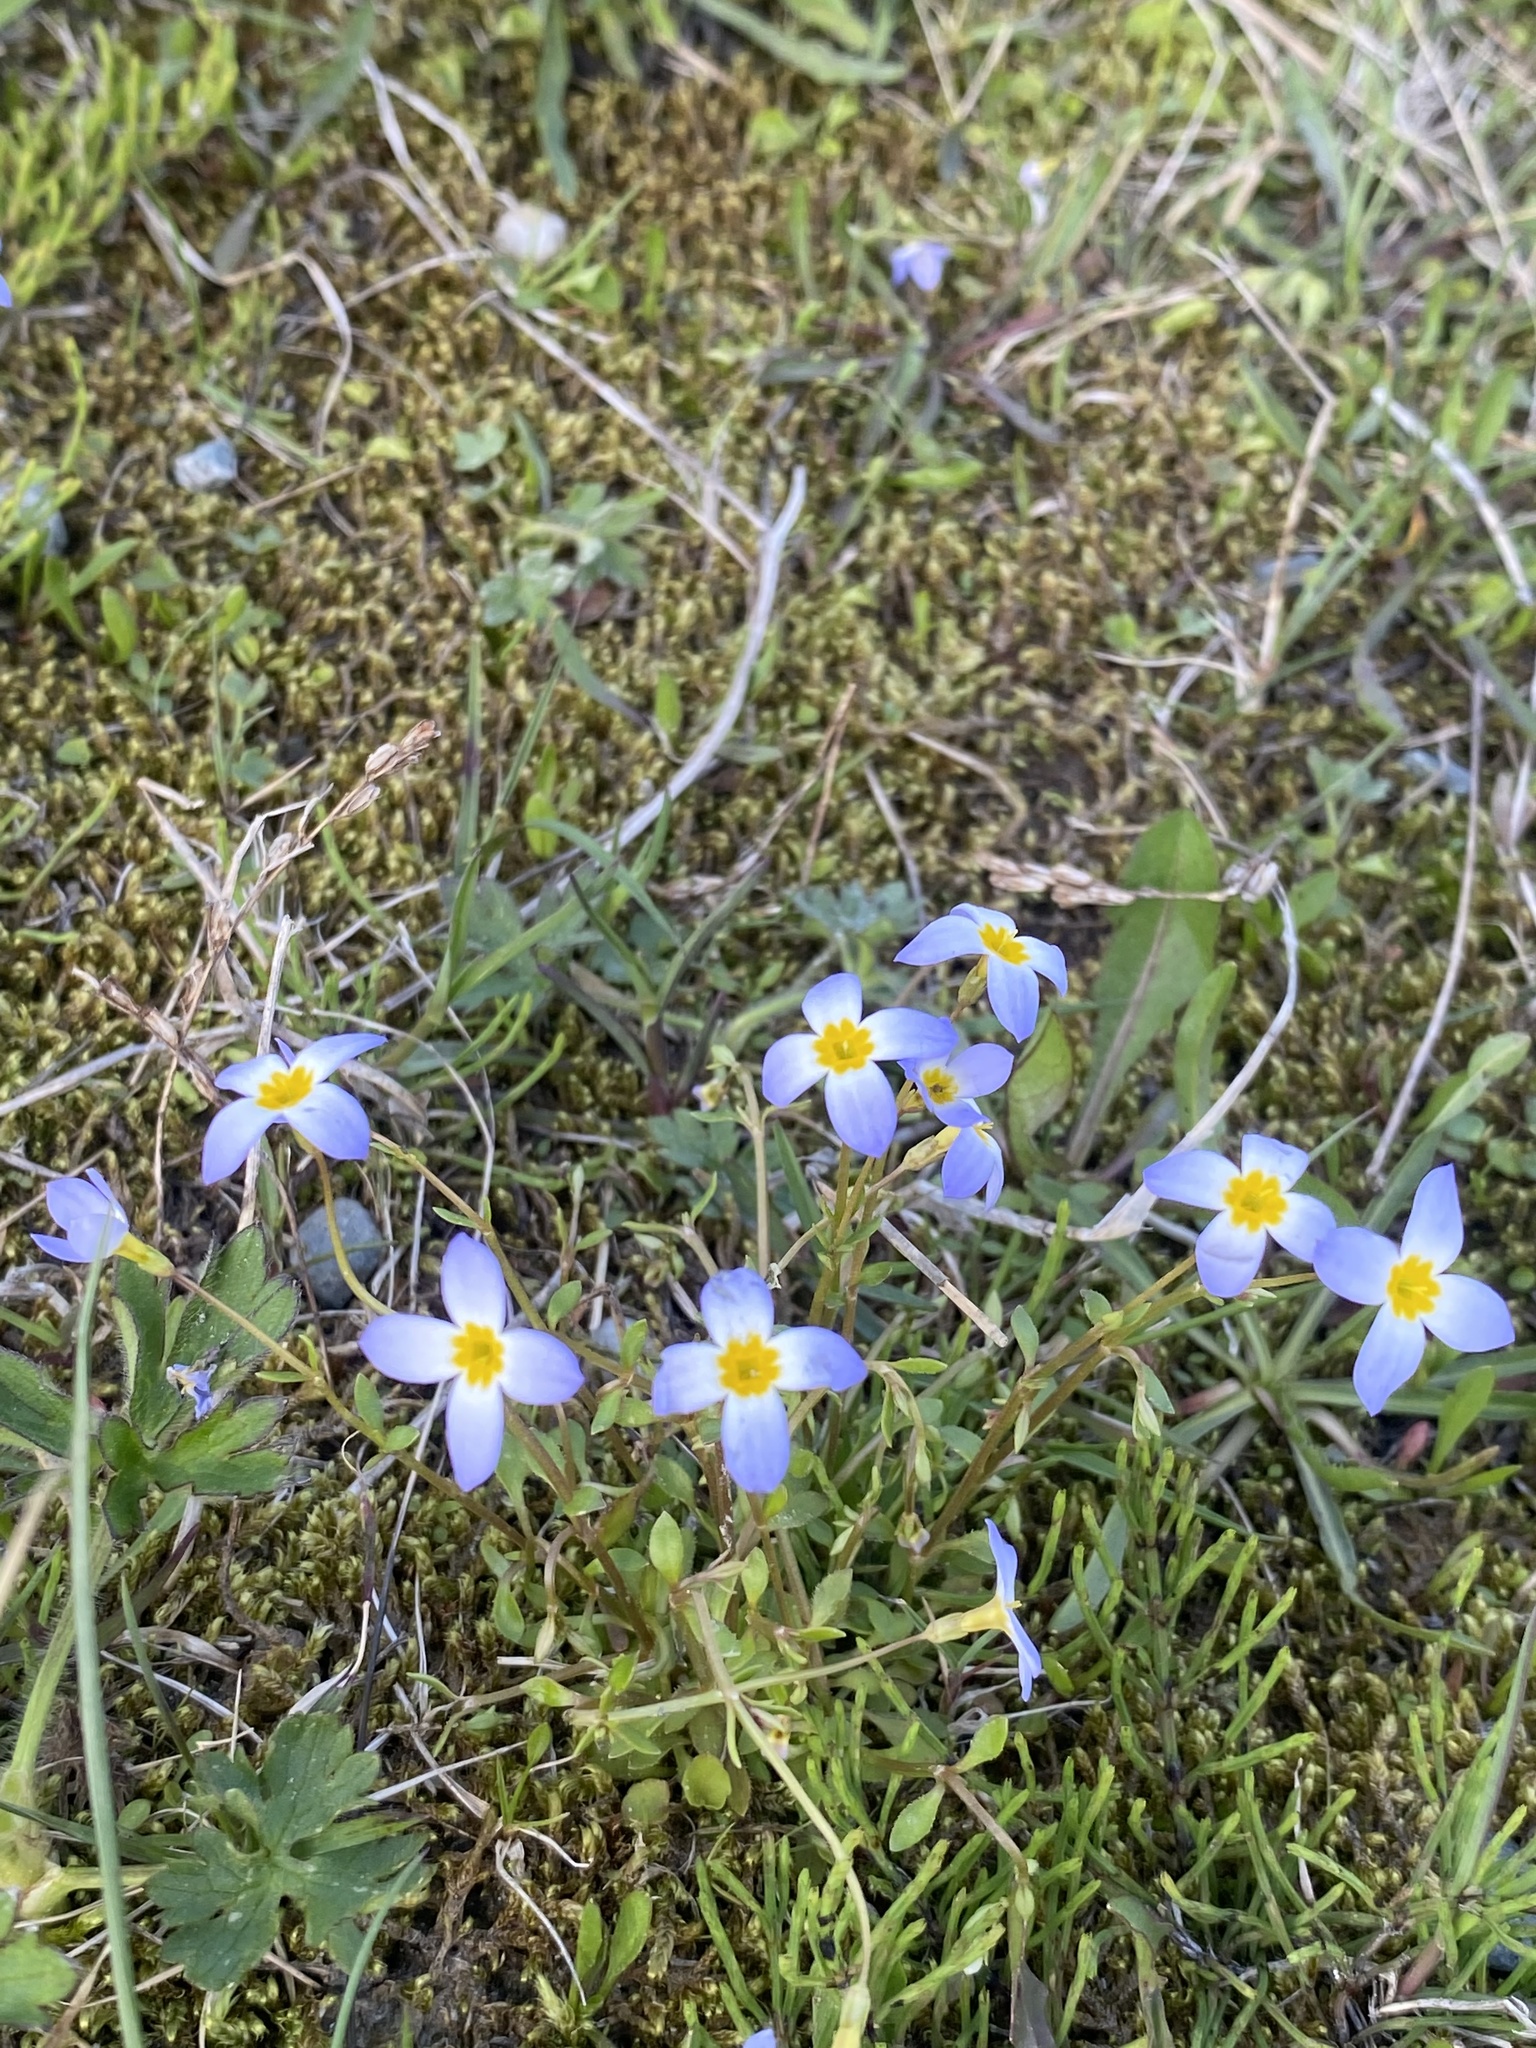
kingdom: Plantae
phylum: Tracheophyta
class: Magnoliopsida
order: Gentianales
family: Rubiaceae
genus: Houstonia
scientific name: Houstonia caerulea
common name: Bluets
